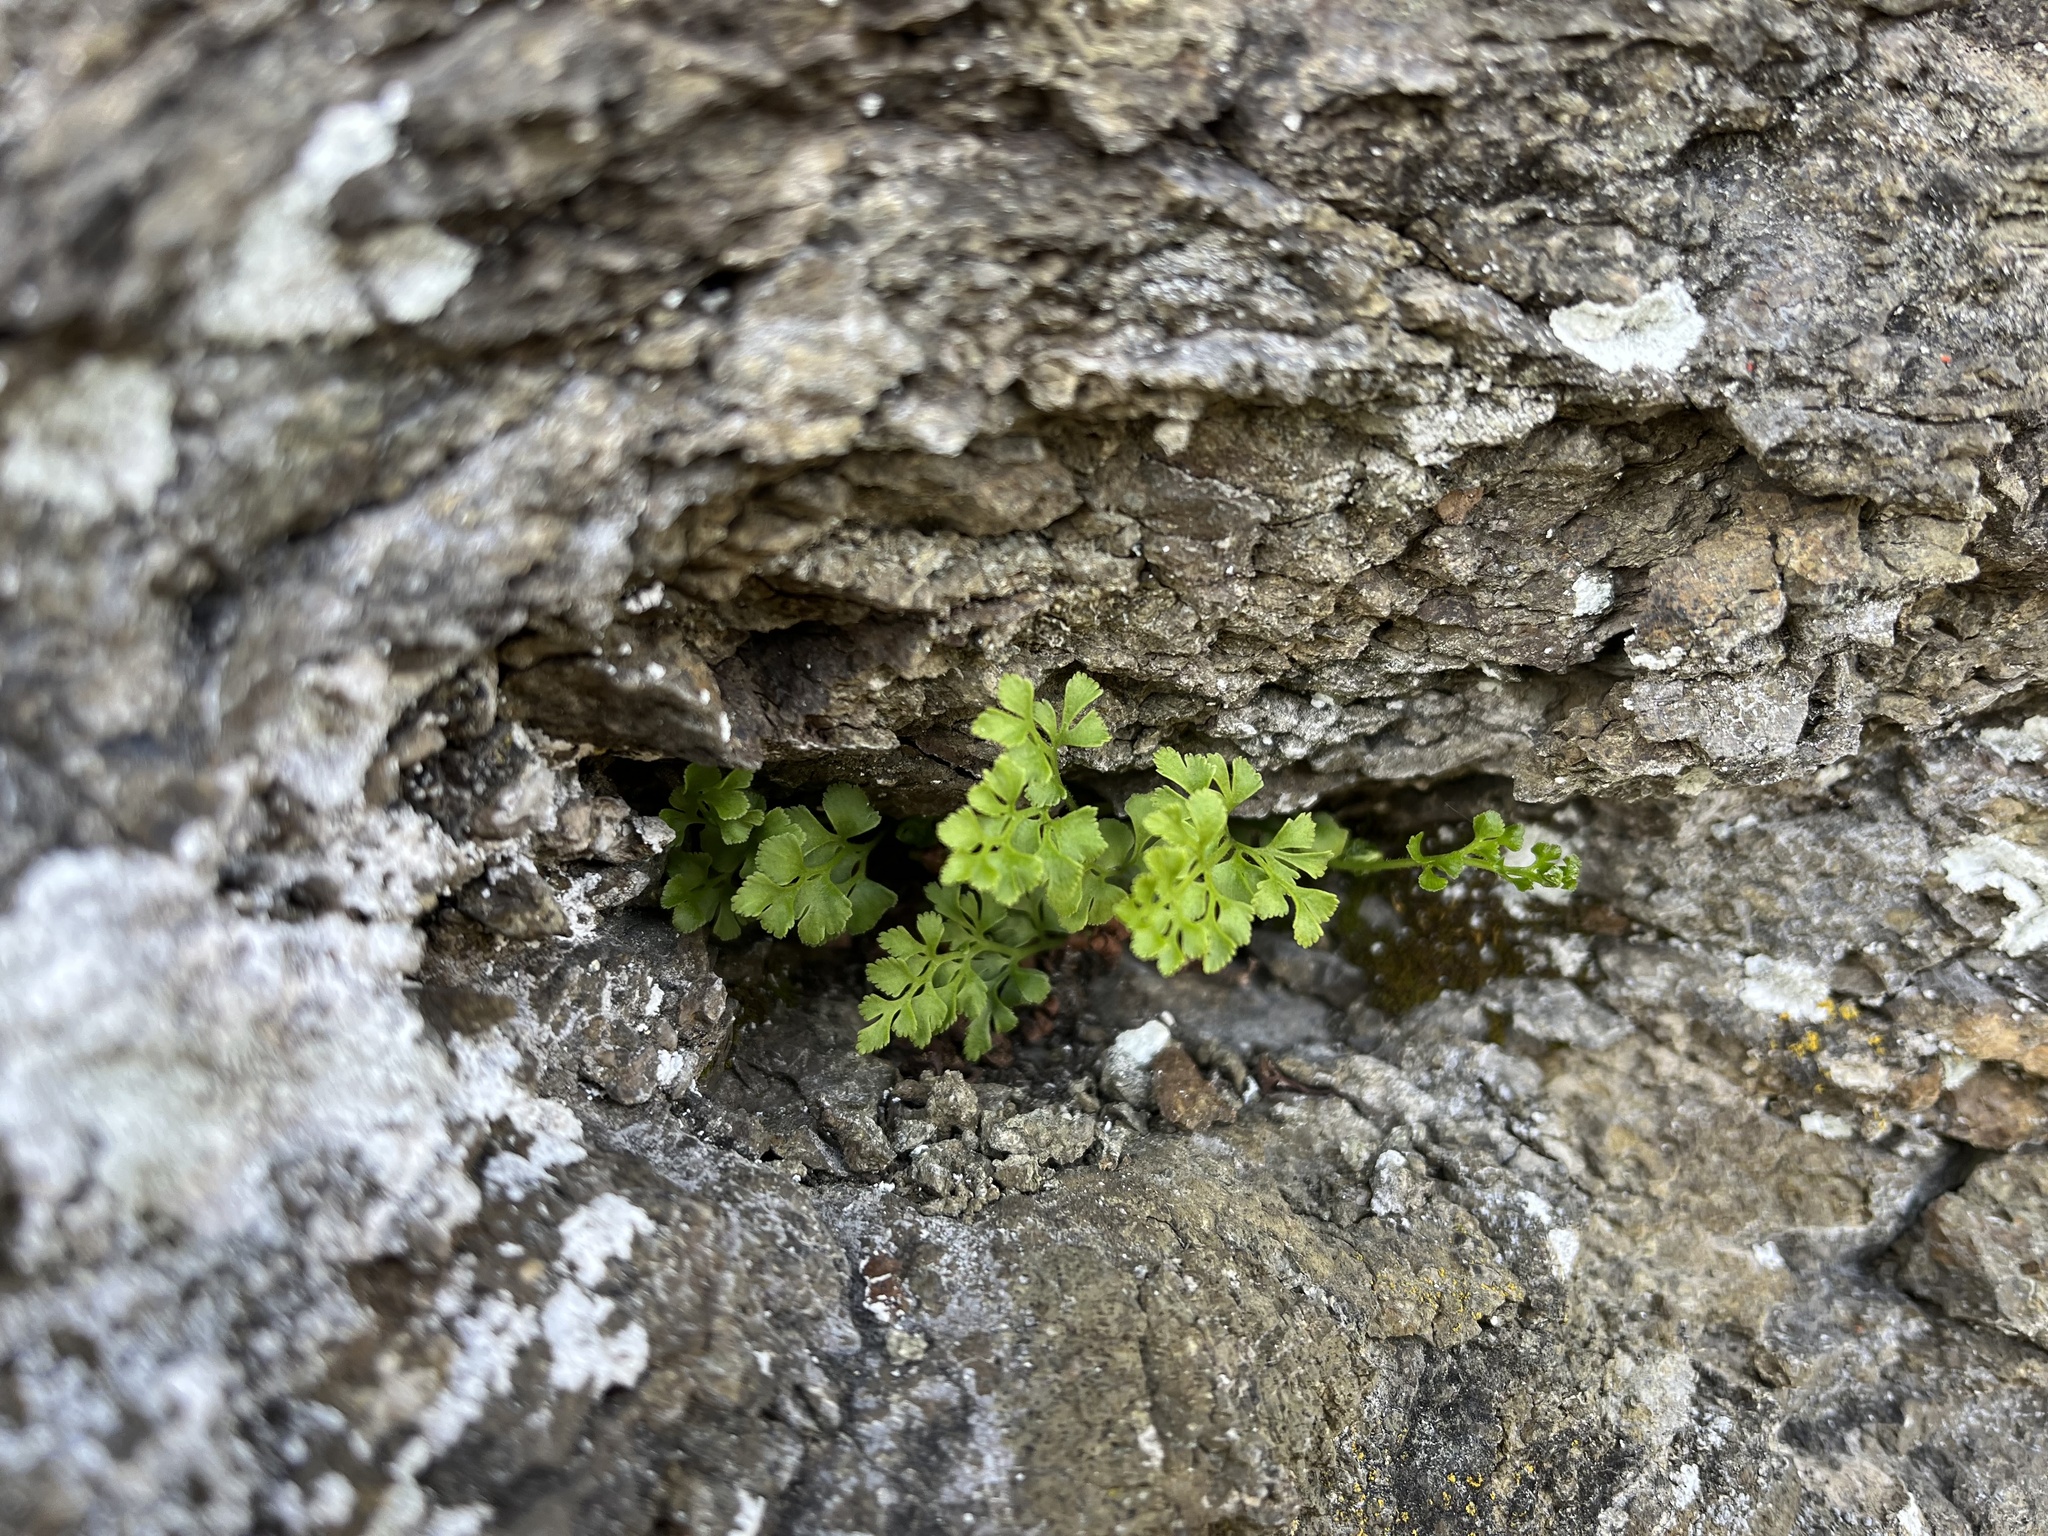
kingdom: Plantae
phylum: Tracheophyta
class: Polypodiopsida
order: Polypodiales
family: Aspleniaceae
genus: Asplenium
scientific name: Asplenium ruta-muraria
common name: Wall-rue
